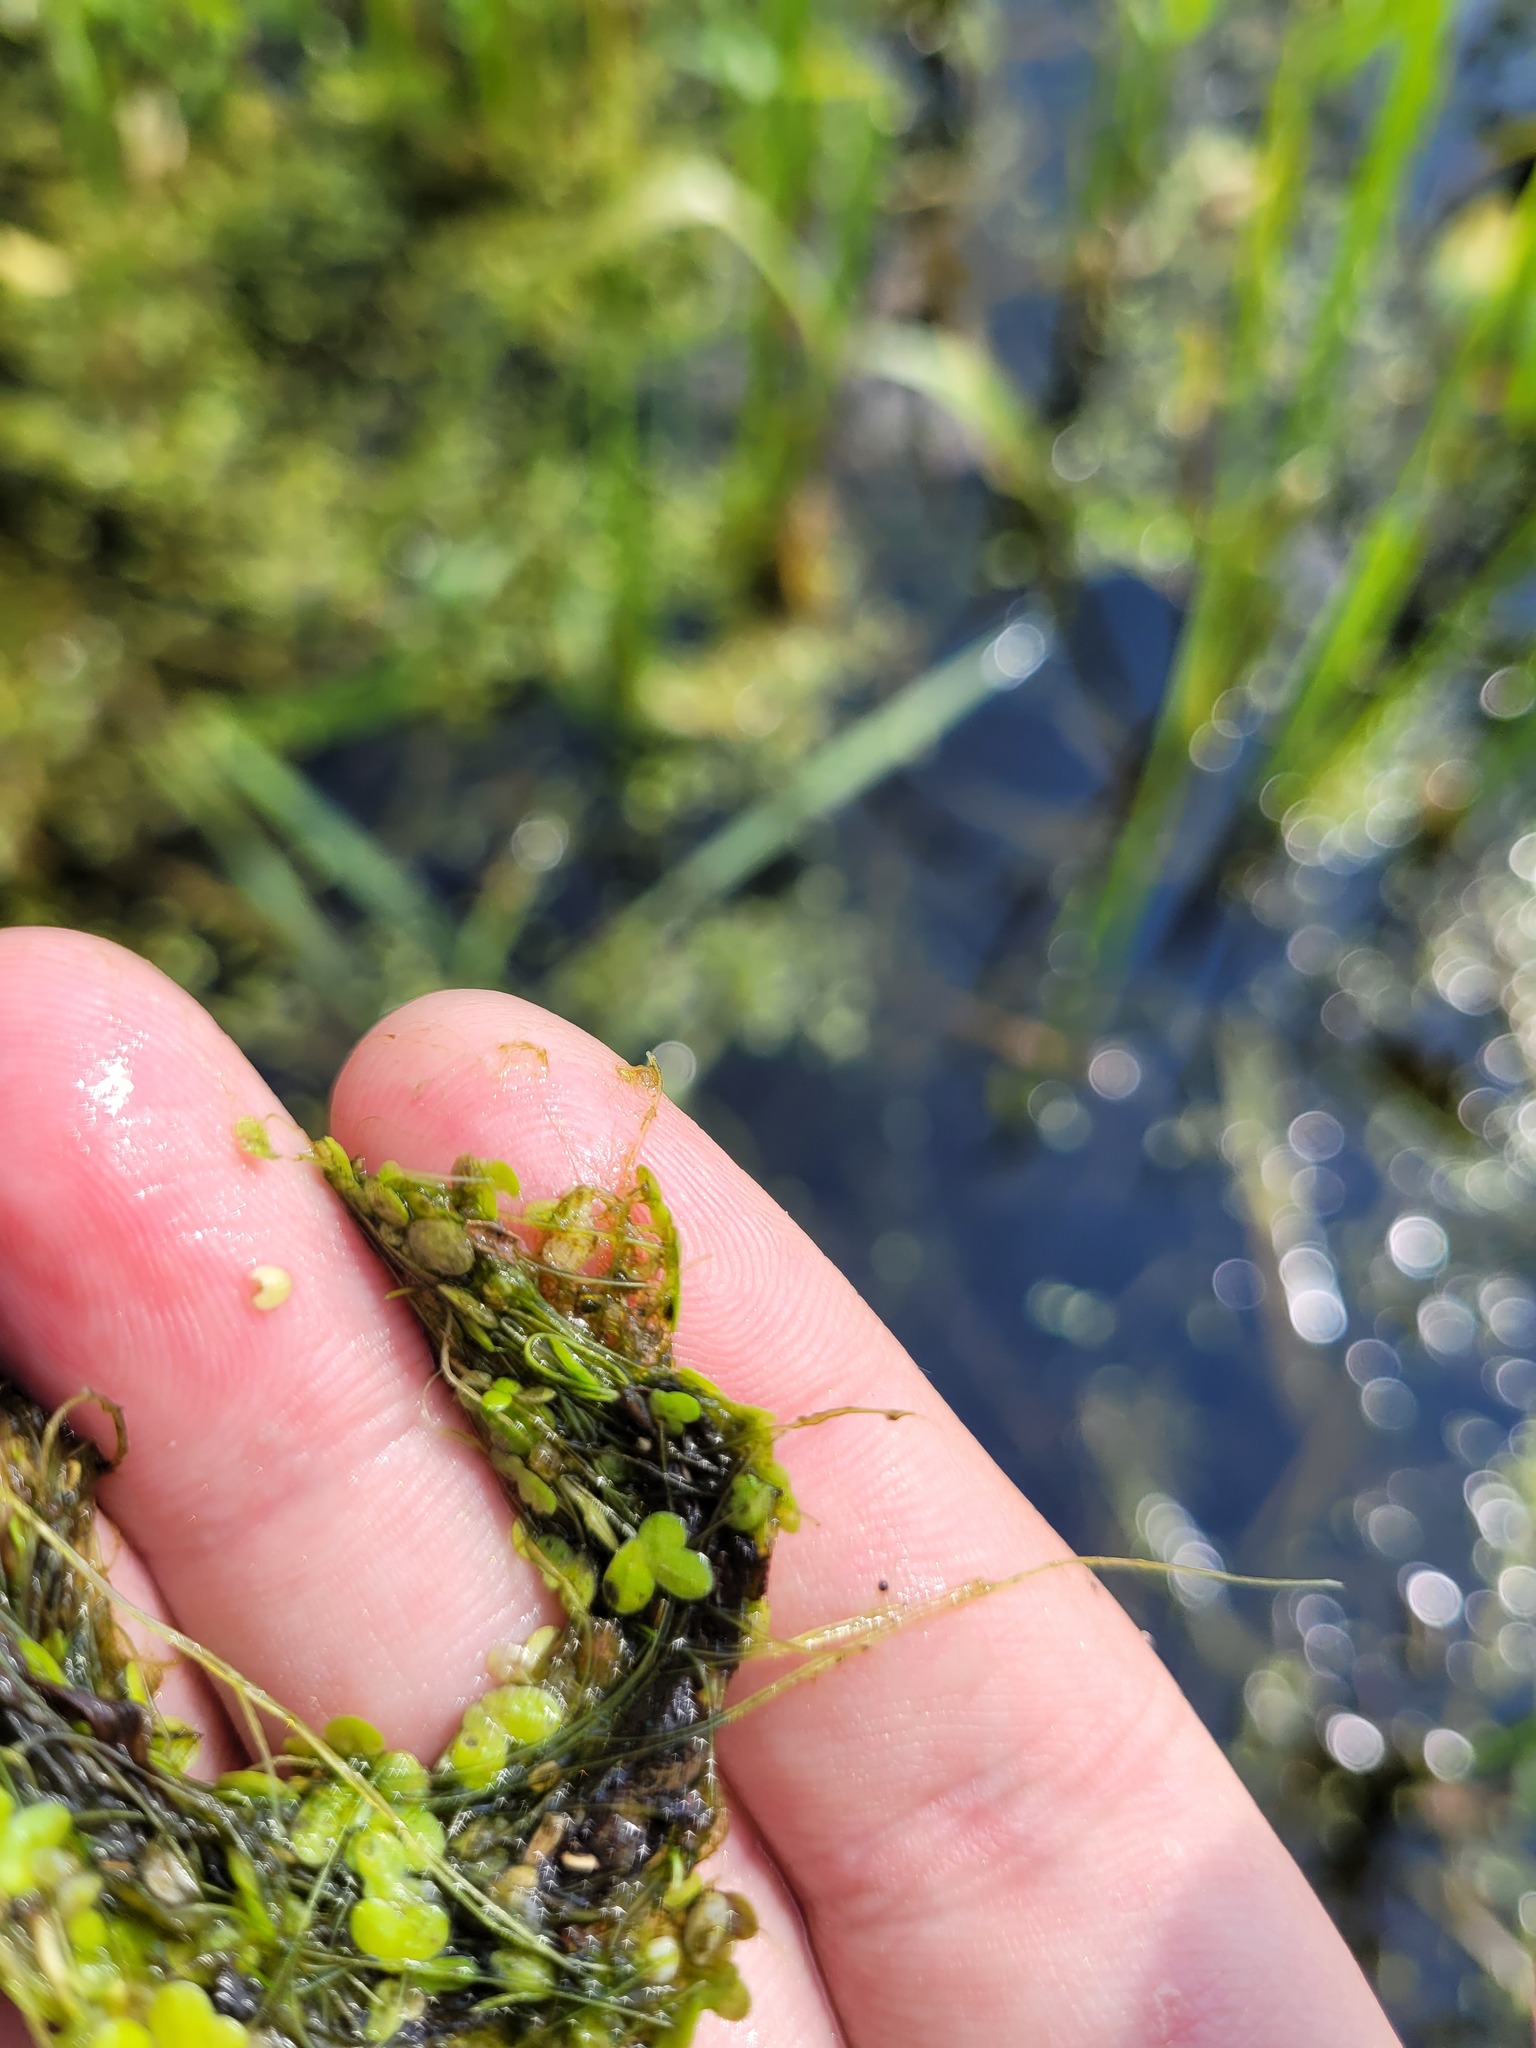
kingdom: Plantae
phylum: Tracheophyta
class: Liliopsida
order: Alismatales
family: Araceae
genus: Lemna
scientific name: Lemna minor
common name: Common duckweed
